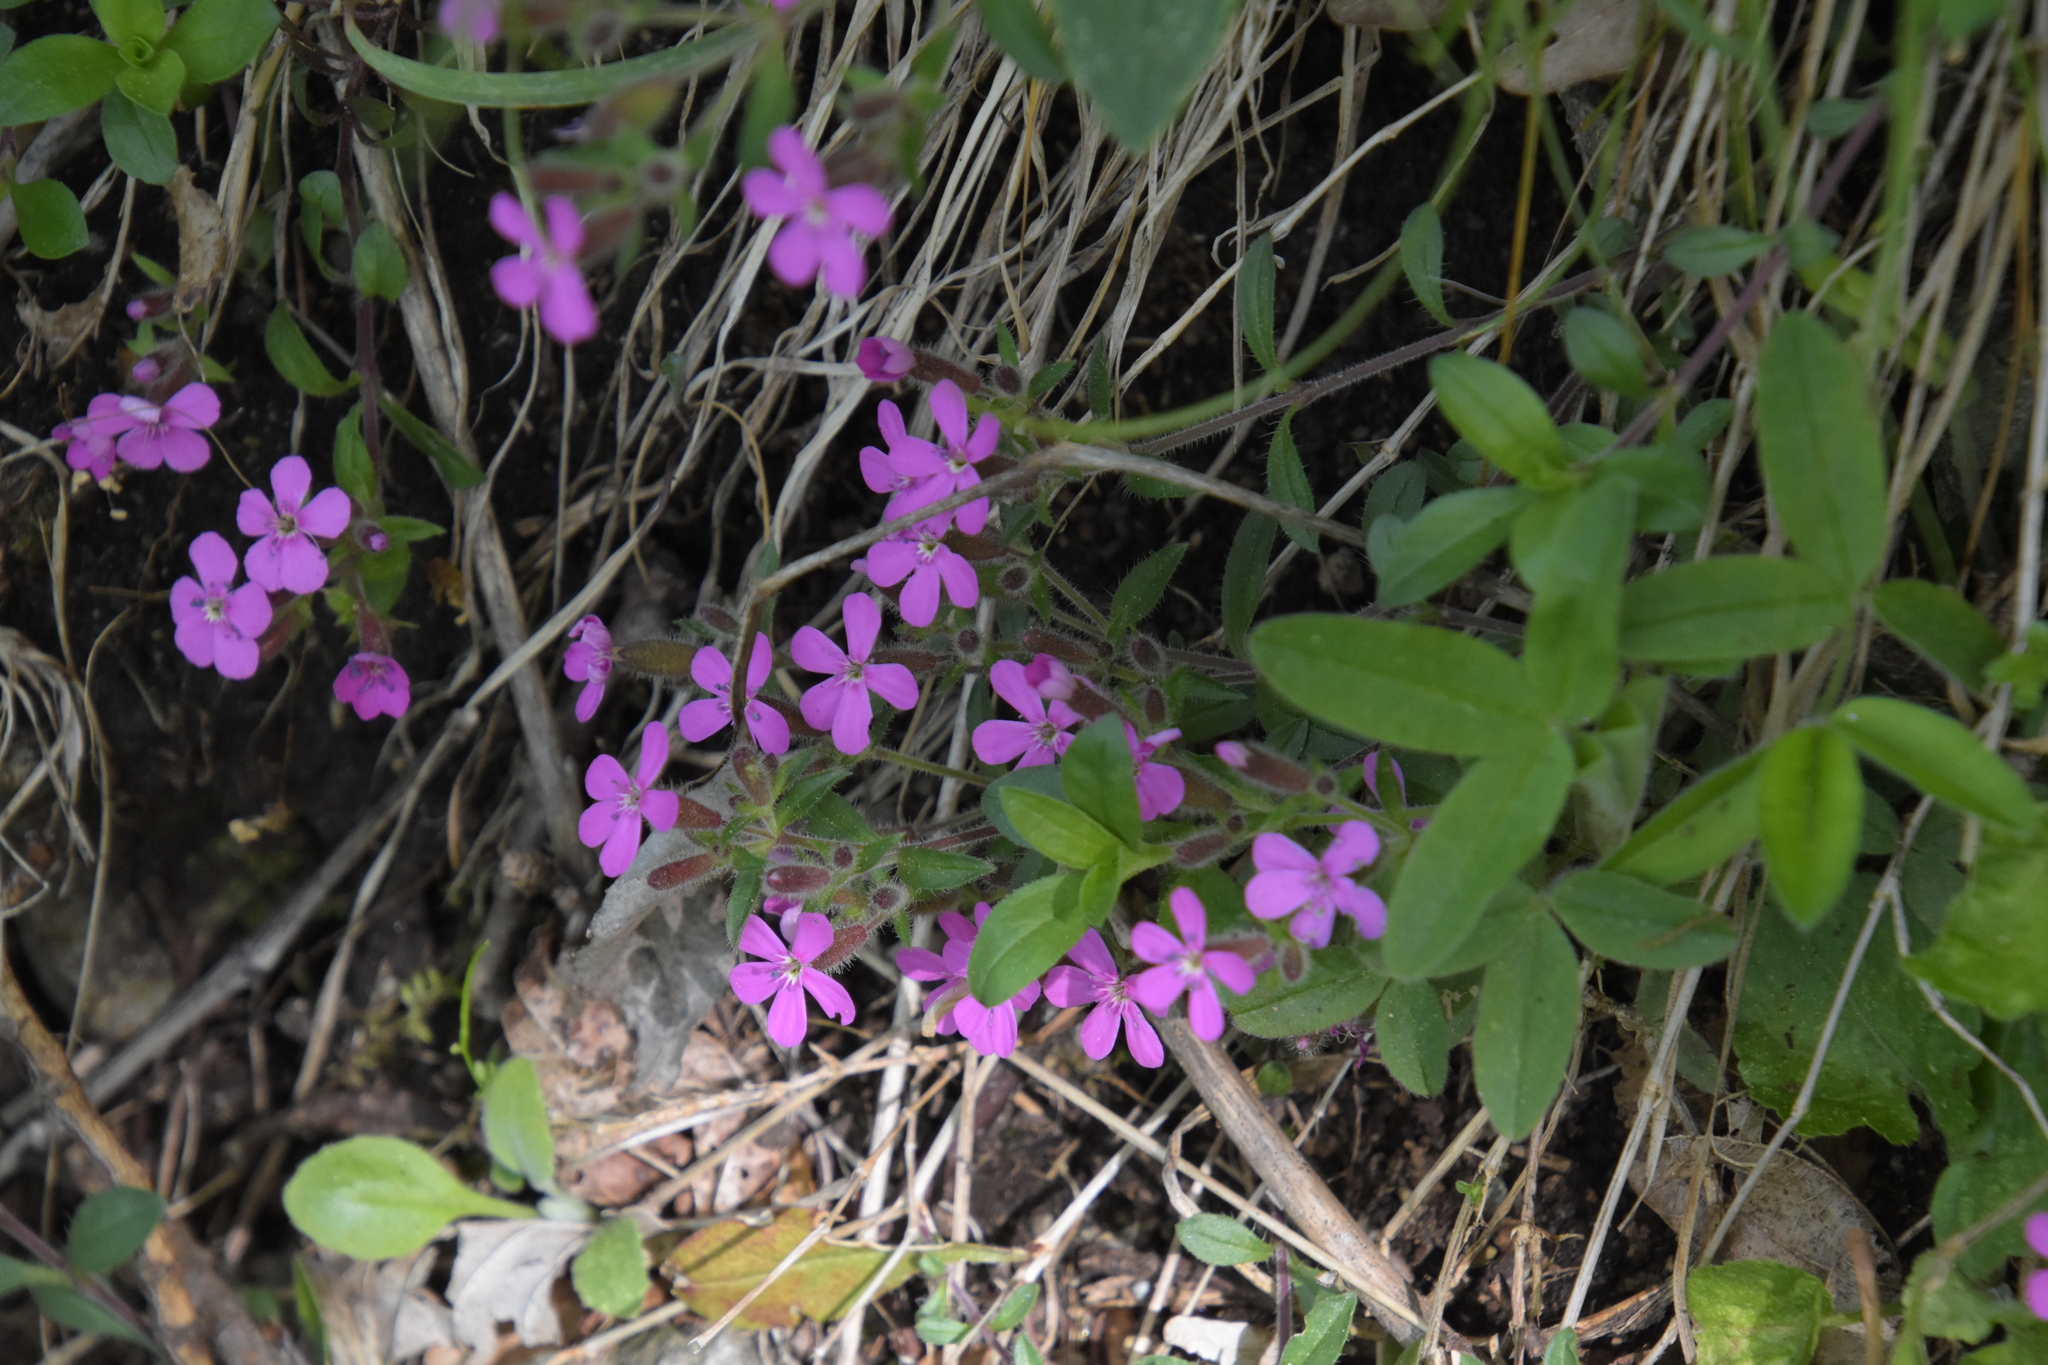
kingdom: Plantae
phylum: Tracheophyta
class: Magnoliopsida
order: Caryophyllales
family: Caryophyllaceae
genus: Saponaria
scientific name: Saponaria ocymoides
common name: Rock soapwort
